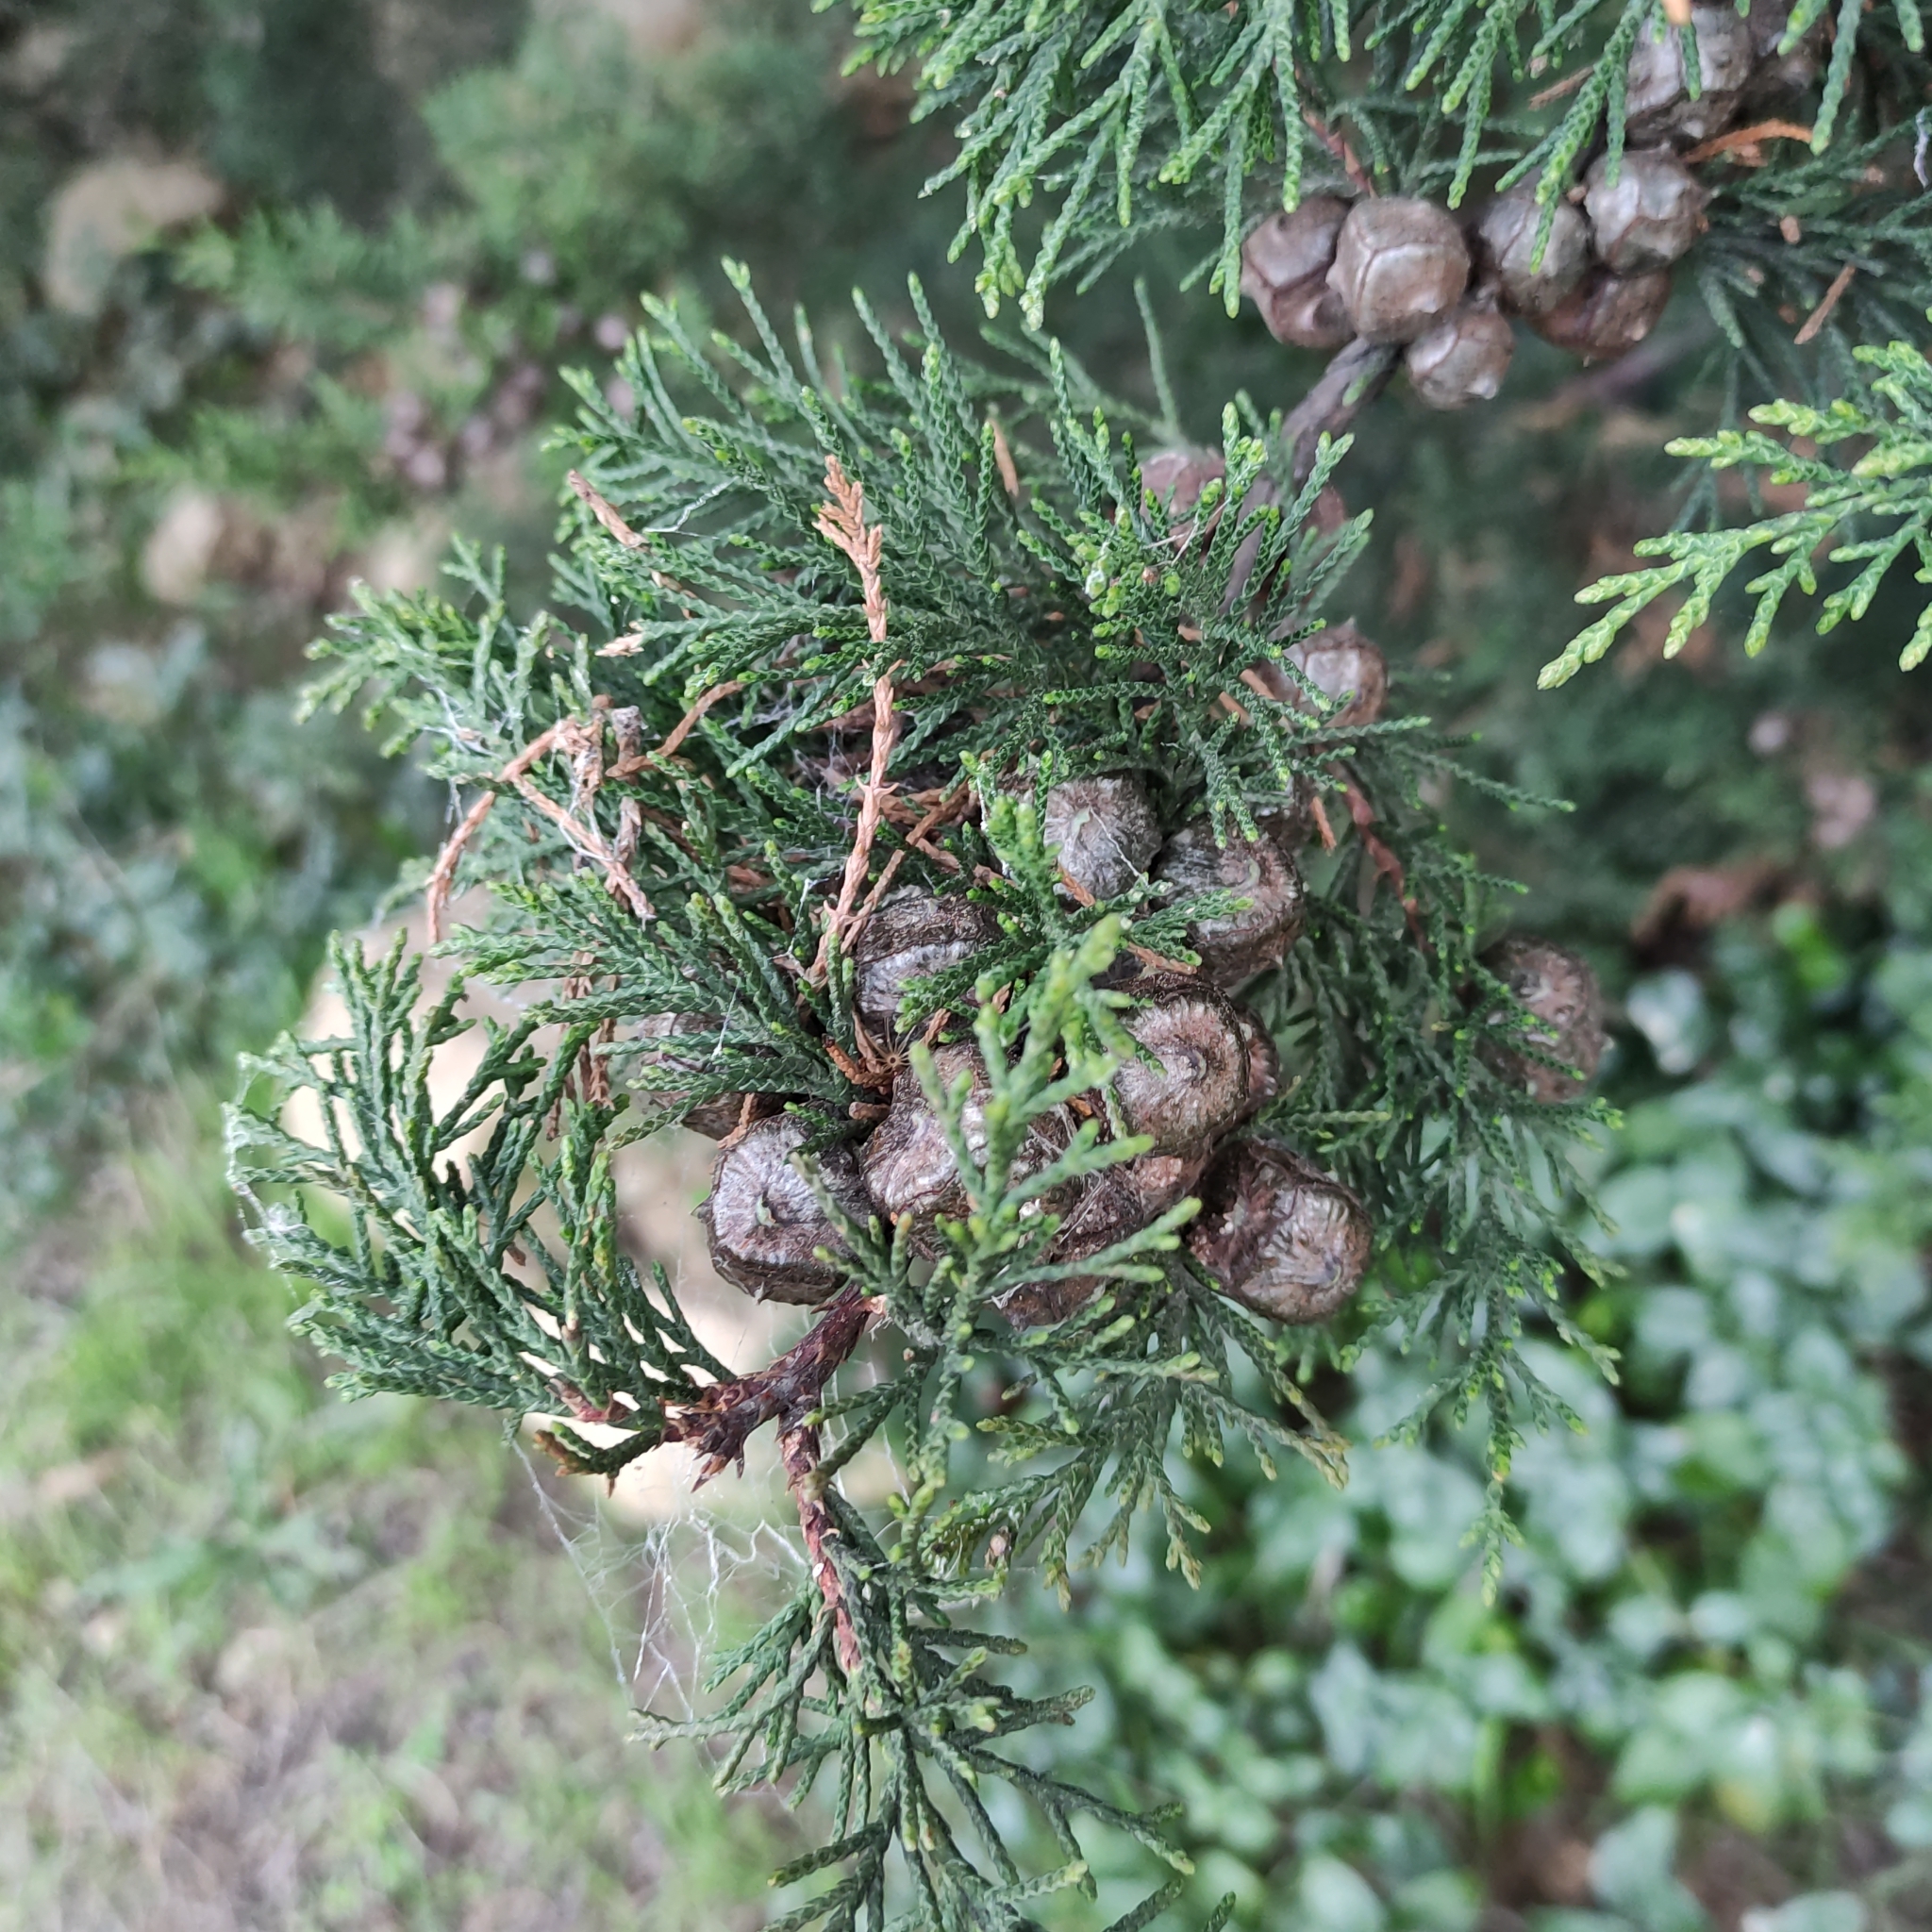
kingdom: Plantae
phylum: Tracheophyta
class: Pinopsida
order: Pinales
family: Cupressaceae
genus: Cupressus
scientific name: Cupressus macrocarpa
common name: Monterey cypress
